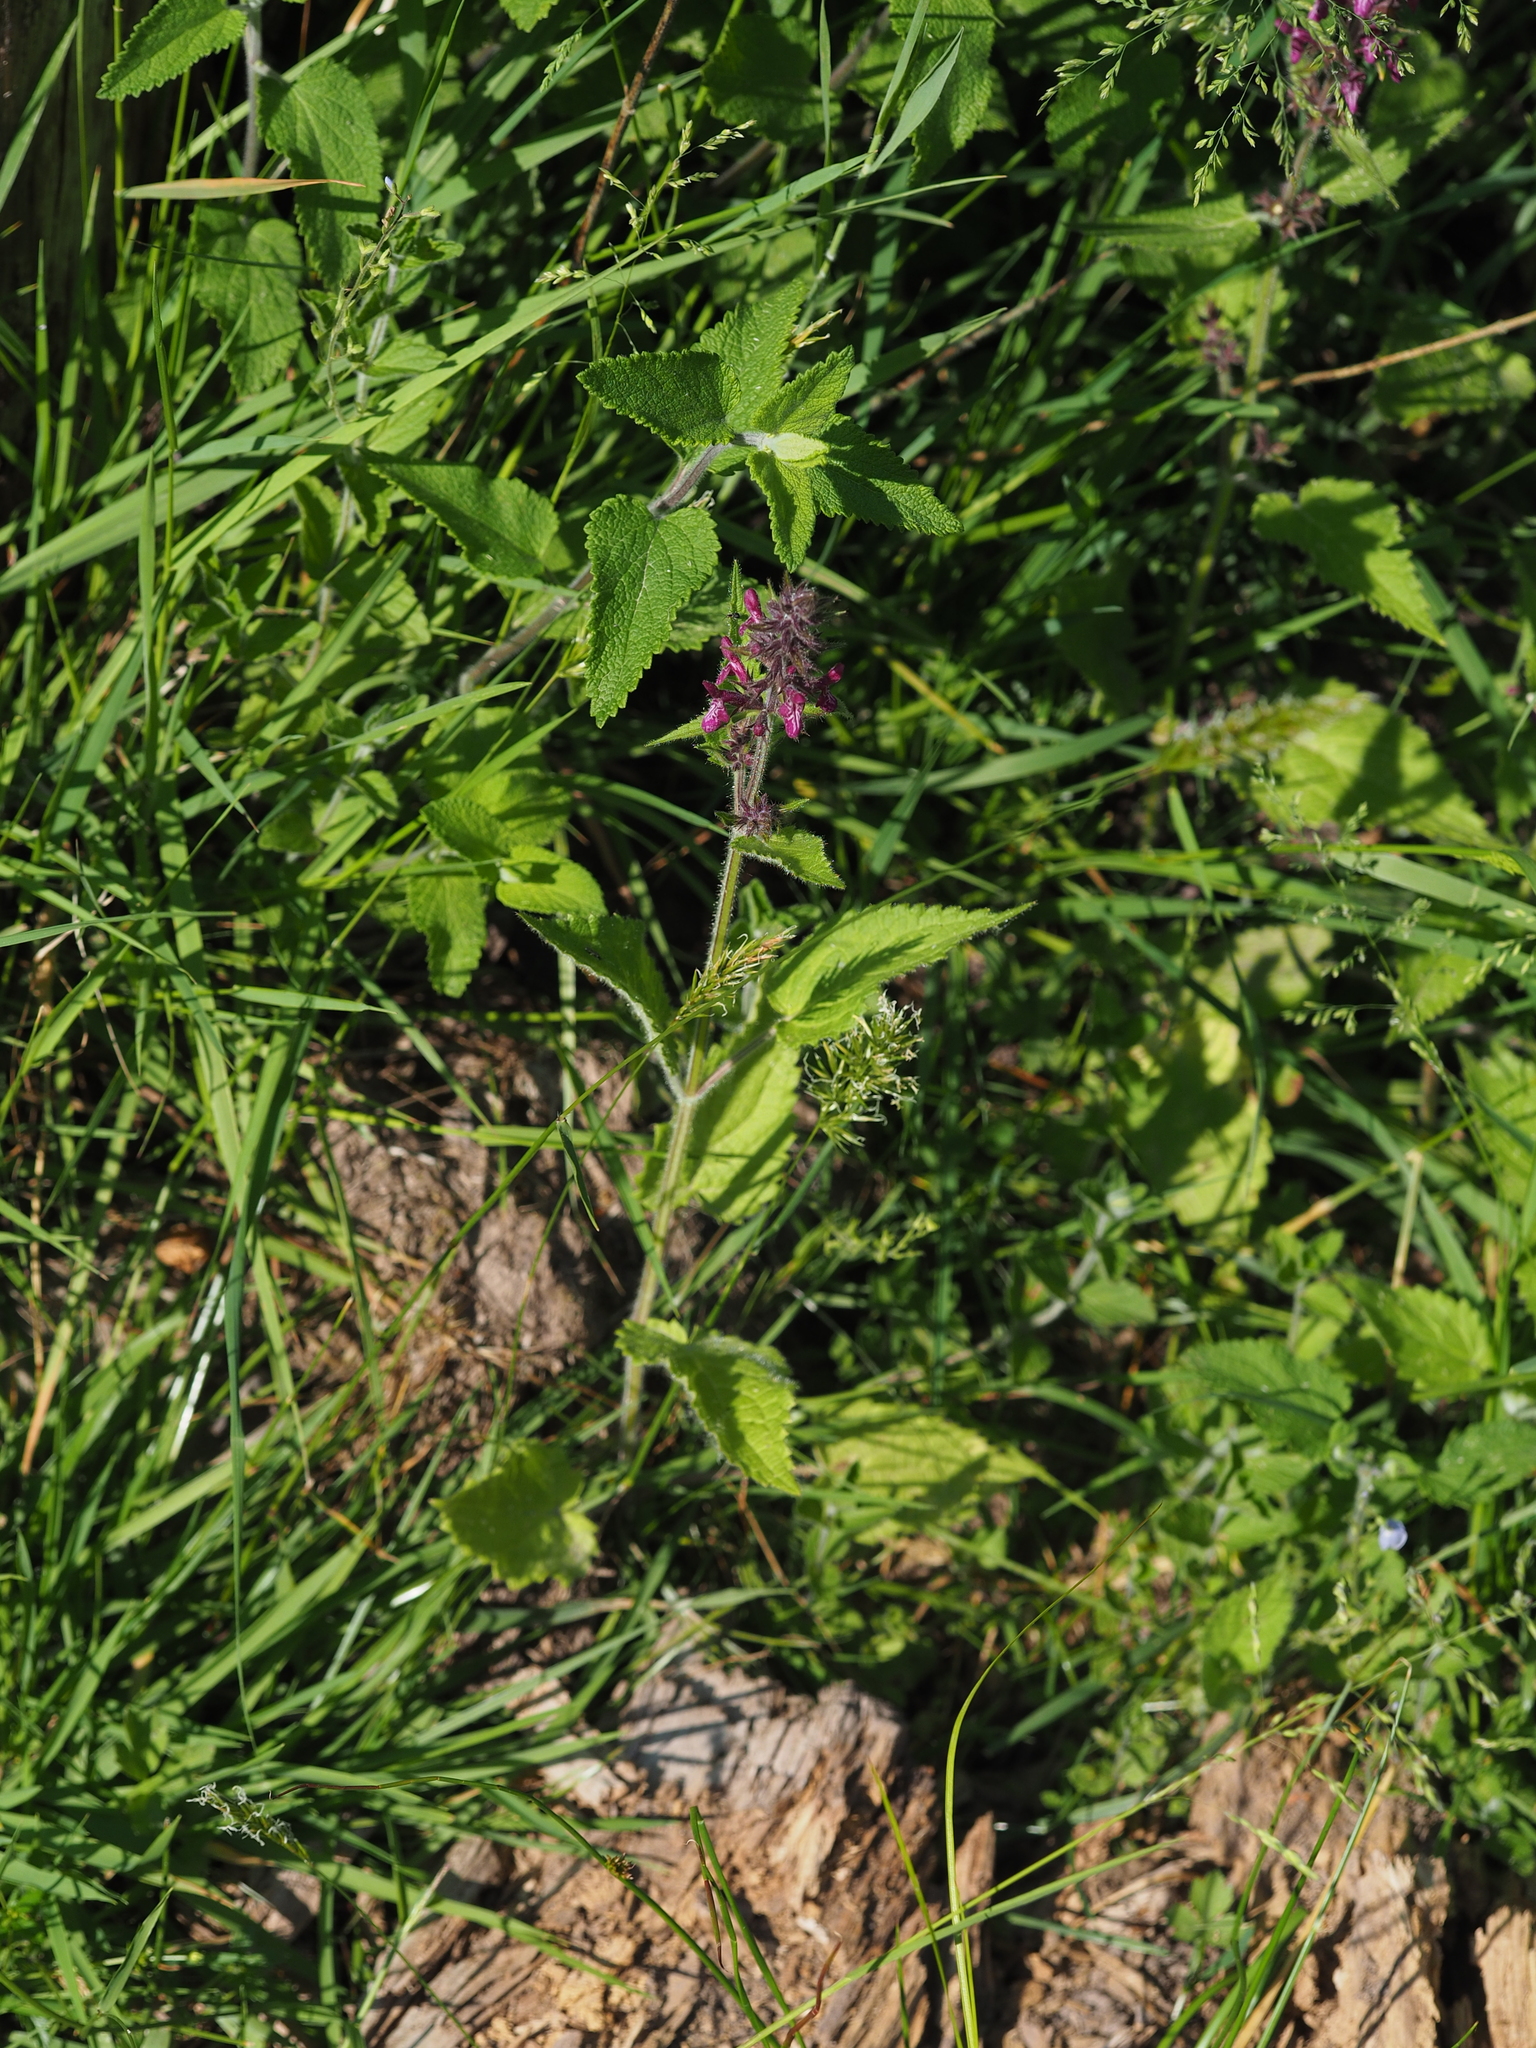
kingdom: Plantae
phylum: Tracheophyta
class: Magnoliopsida
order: Lamiales
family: Lamiaceae
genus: Stachys
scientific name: Stachys sylvatica
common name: Hedge woundwort
